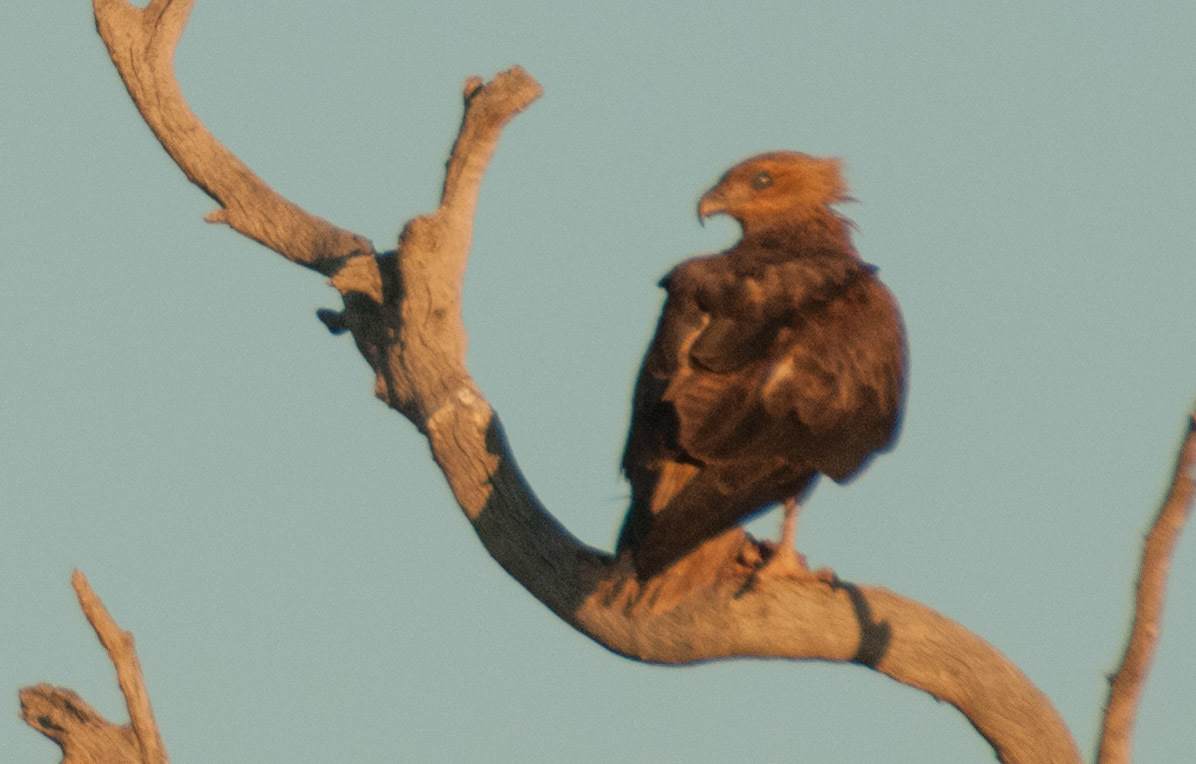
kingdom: Animalia
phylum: Chordata
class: Aves
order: Accipitriformes
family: Accipitridae
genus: Haliastur
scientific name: Haliastur sphenurus
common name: Whistling kite
